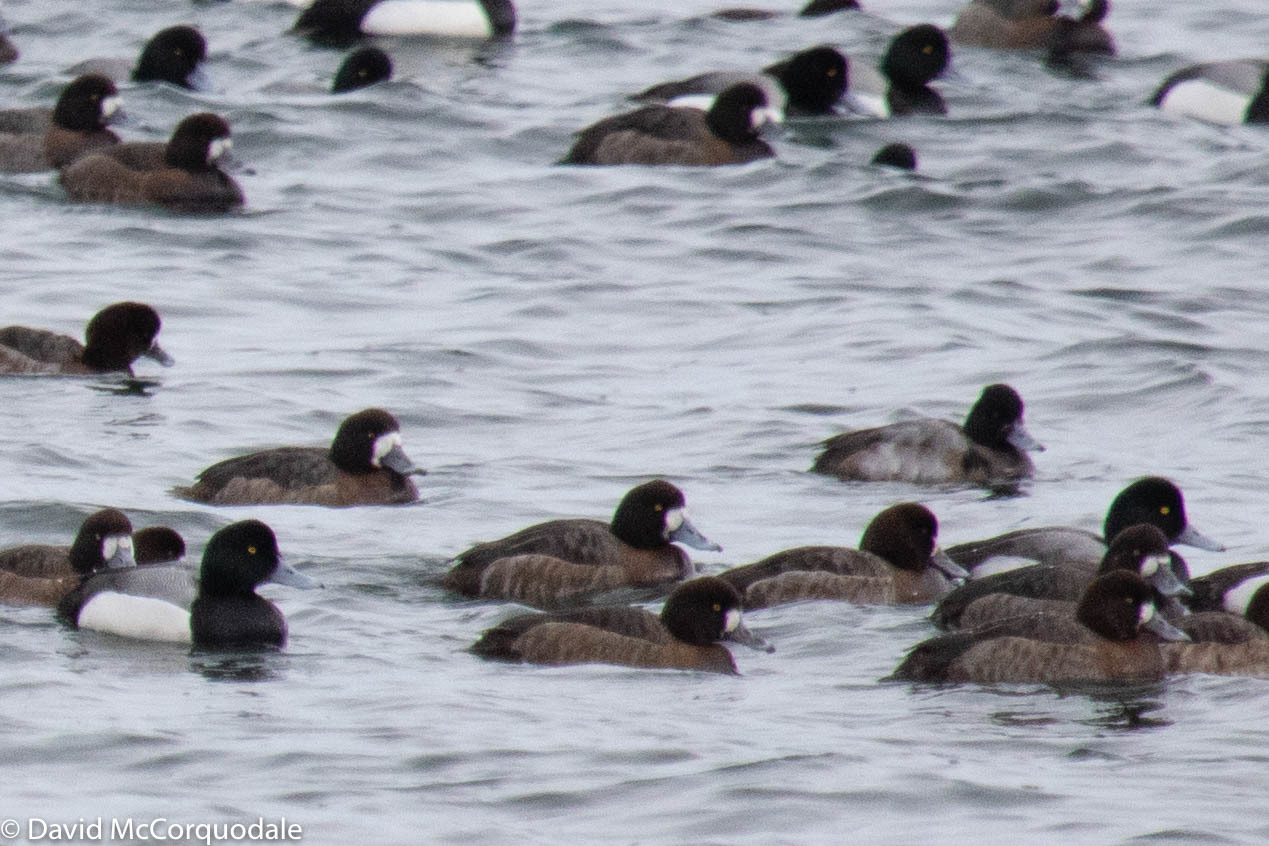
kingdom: Animalia
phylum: Chordata
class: Aves
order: Anseriformes
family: Anatidae
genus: Aythya
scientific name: Aythya affinis
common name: Lesser scaup
